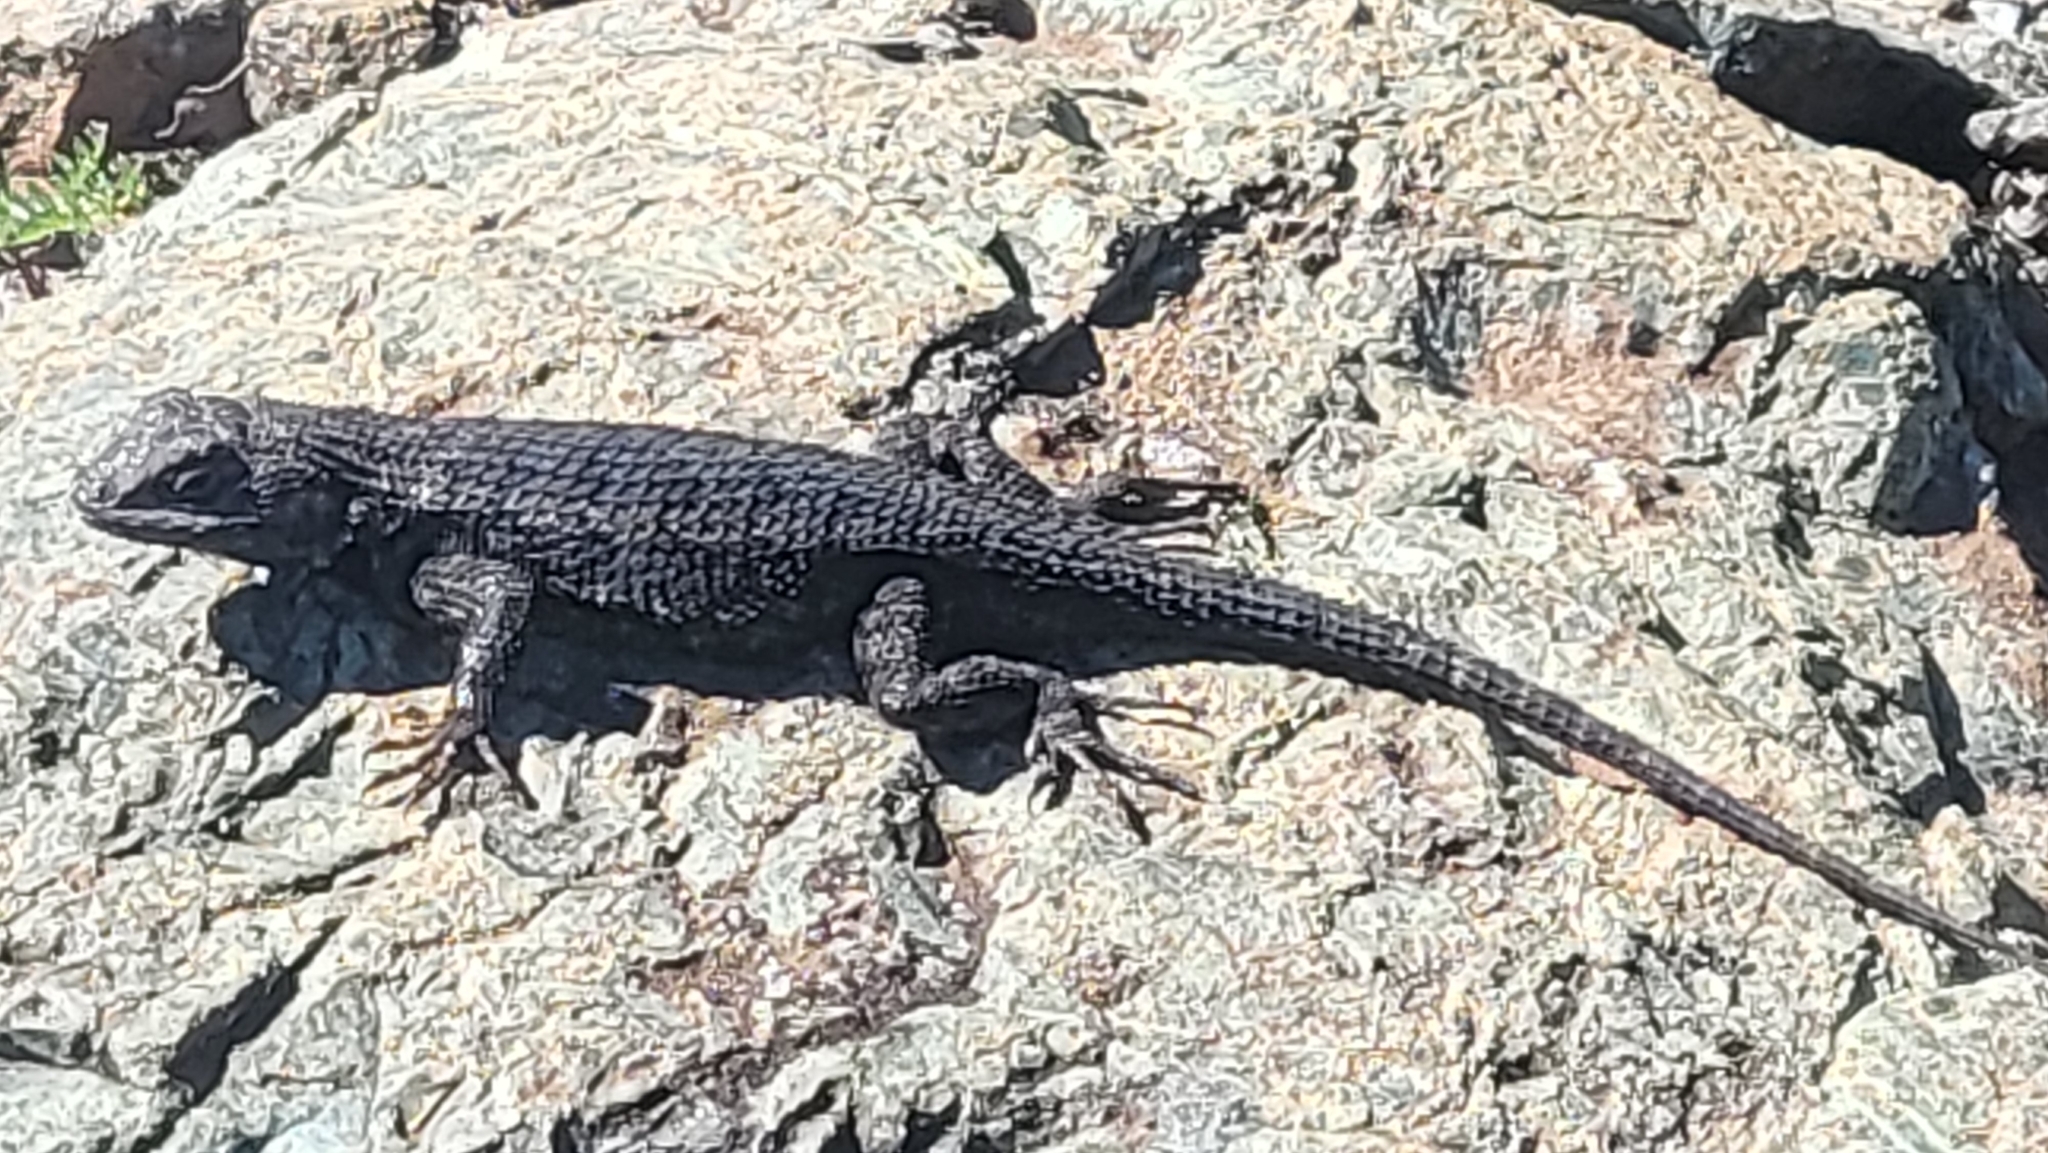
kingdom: Animalia
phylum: Chordata
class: Squamata
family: Phrynosomatidae
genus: Sceloporus
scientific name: Sceloporus occidentalis
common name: Western fence lizard
